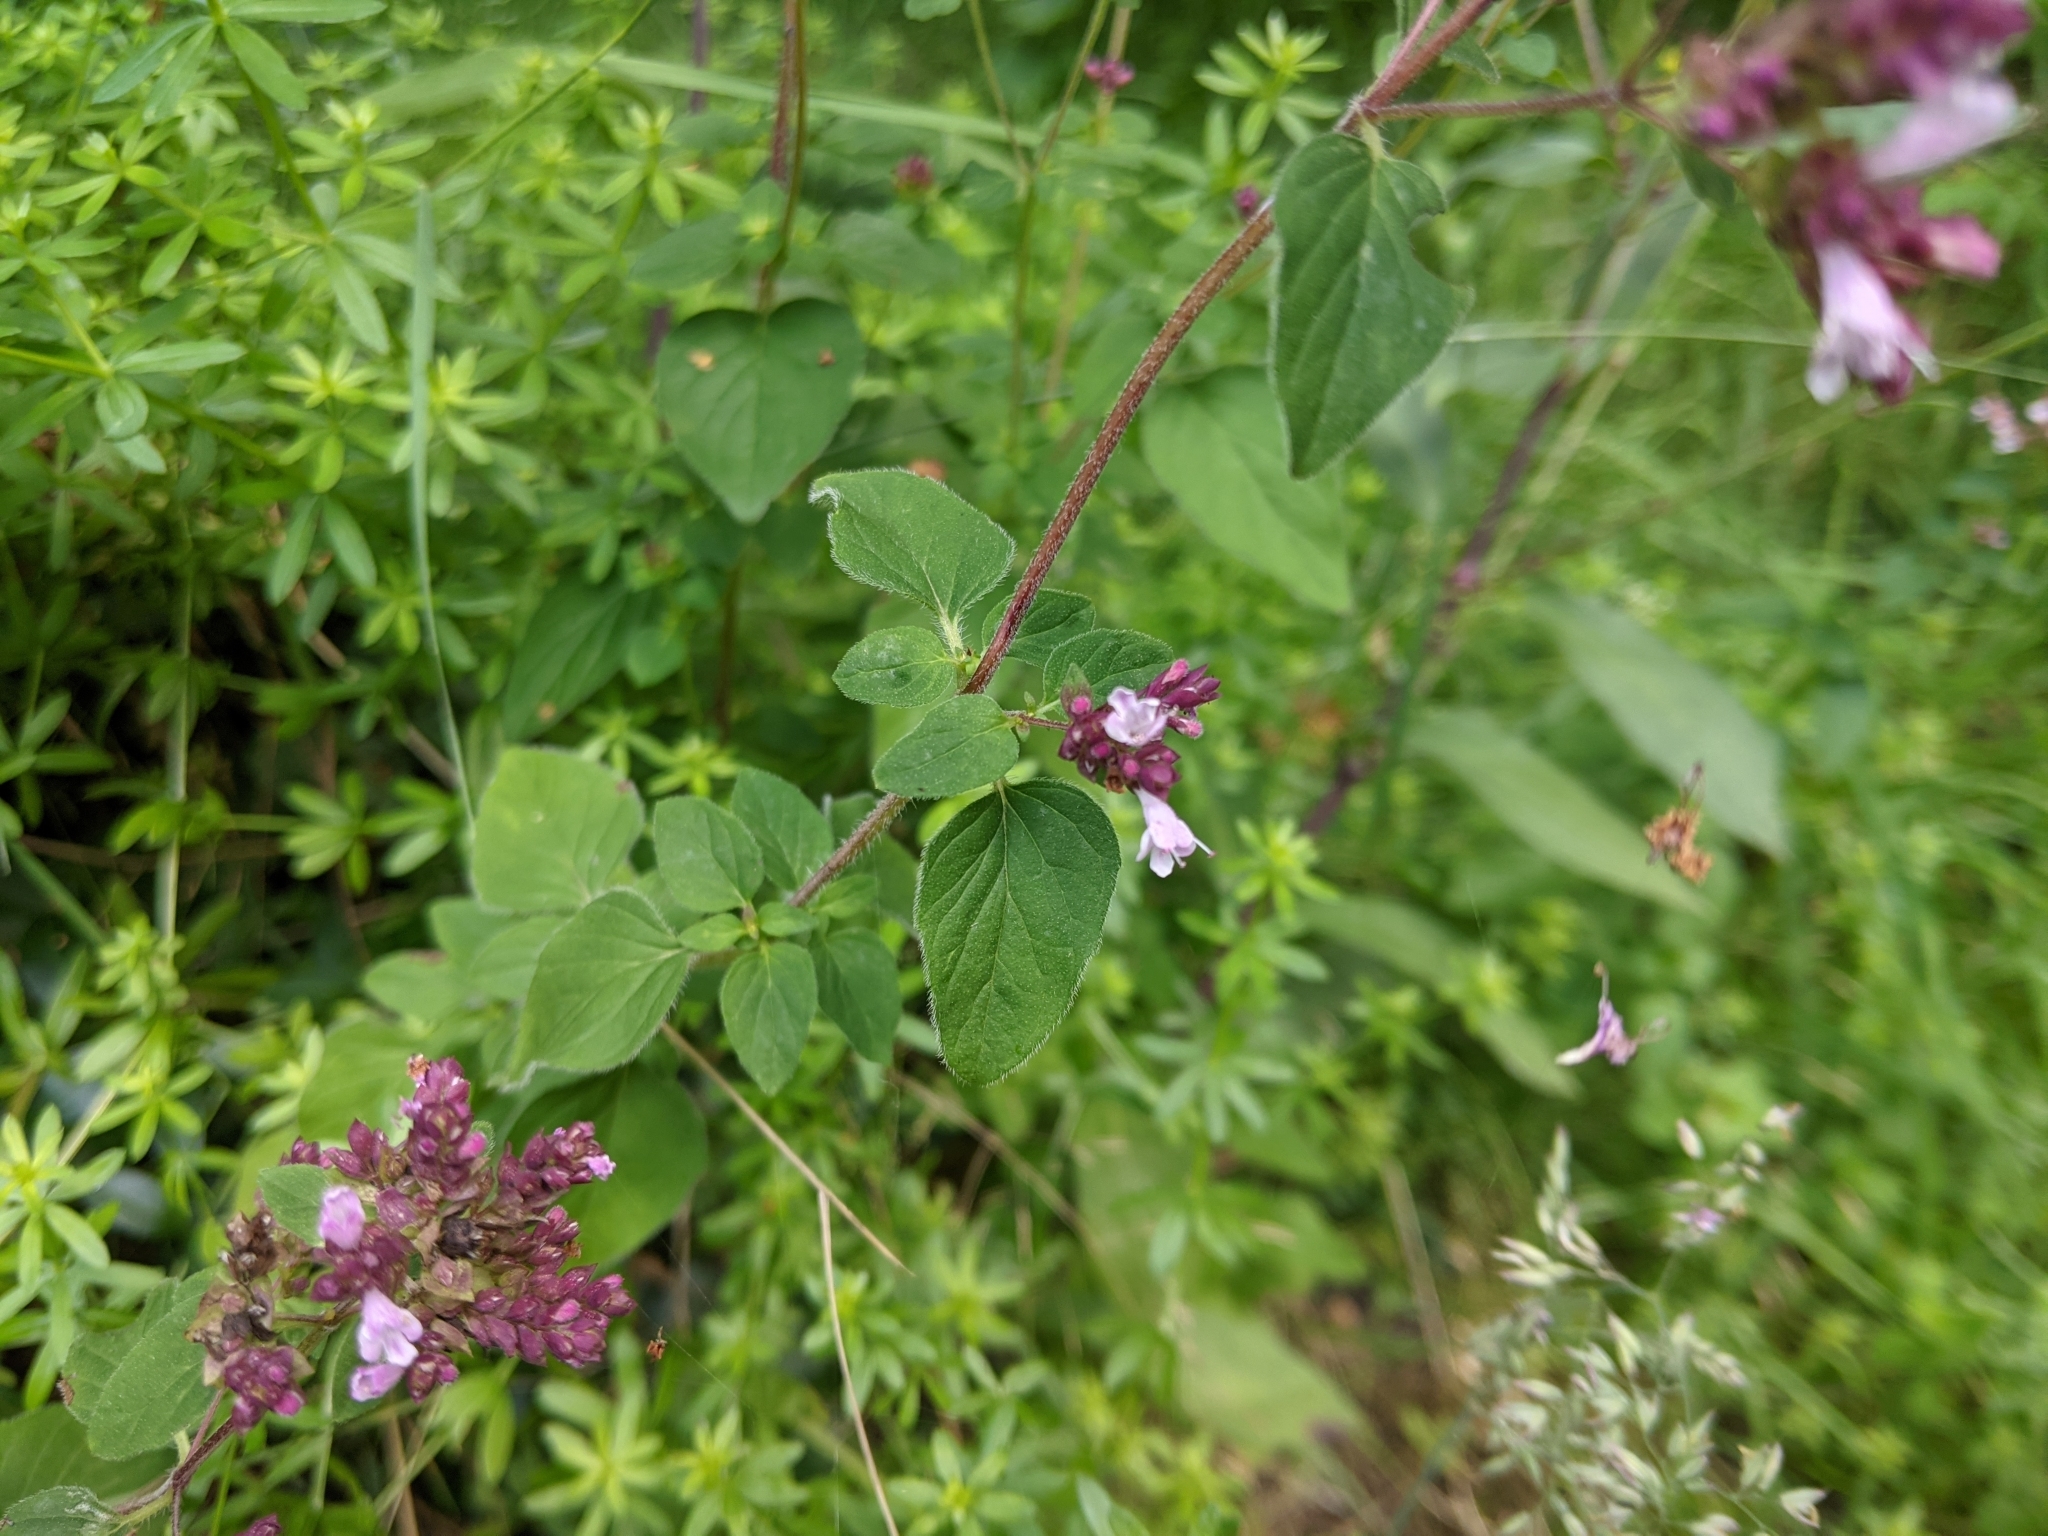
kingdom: Plantae
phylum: Tracheophyta
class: Magnoliopsida
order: Lamiales
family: Lamiaceae
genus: Origanum
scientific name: Origanum vulgare
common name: Wild marjoram
